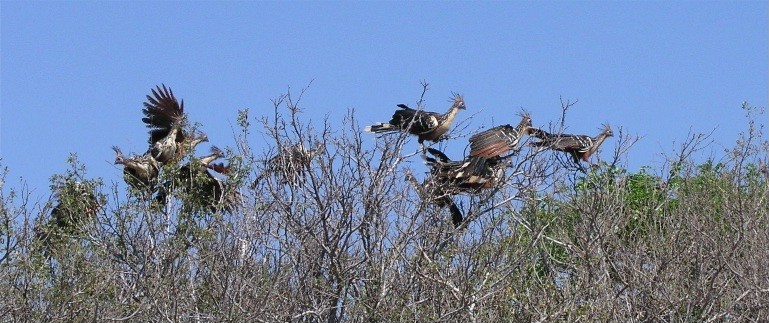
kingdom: Animalia
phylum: Chordata
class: Aves
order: Opisthocomiformes
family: Opisthocomidae
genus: Opisthocomus
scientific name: Opisthocomus hoazin
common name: Hoatzin
